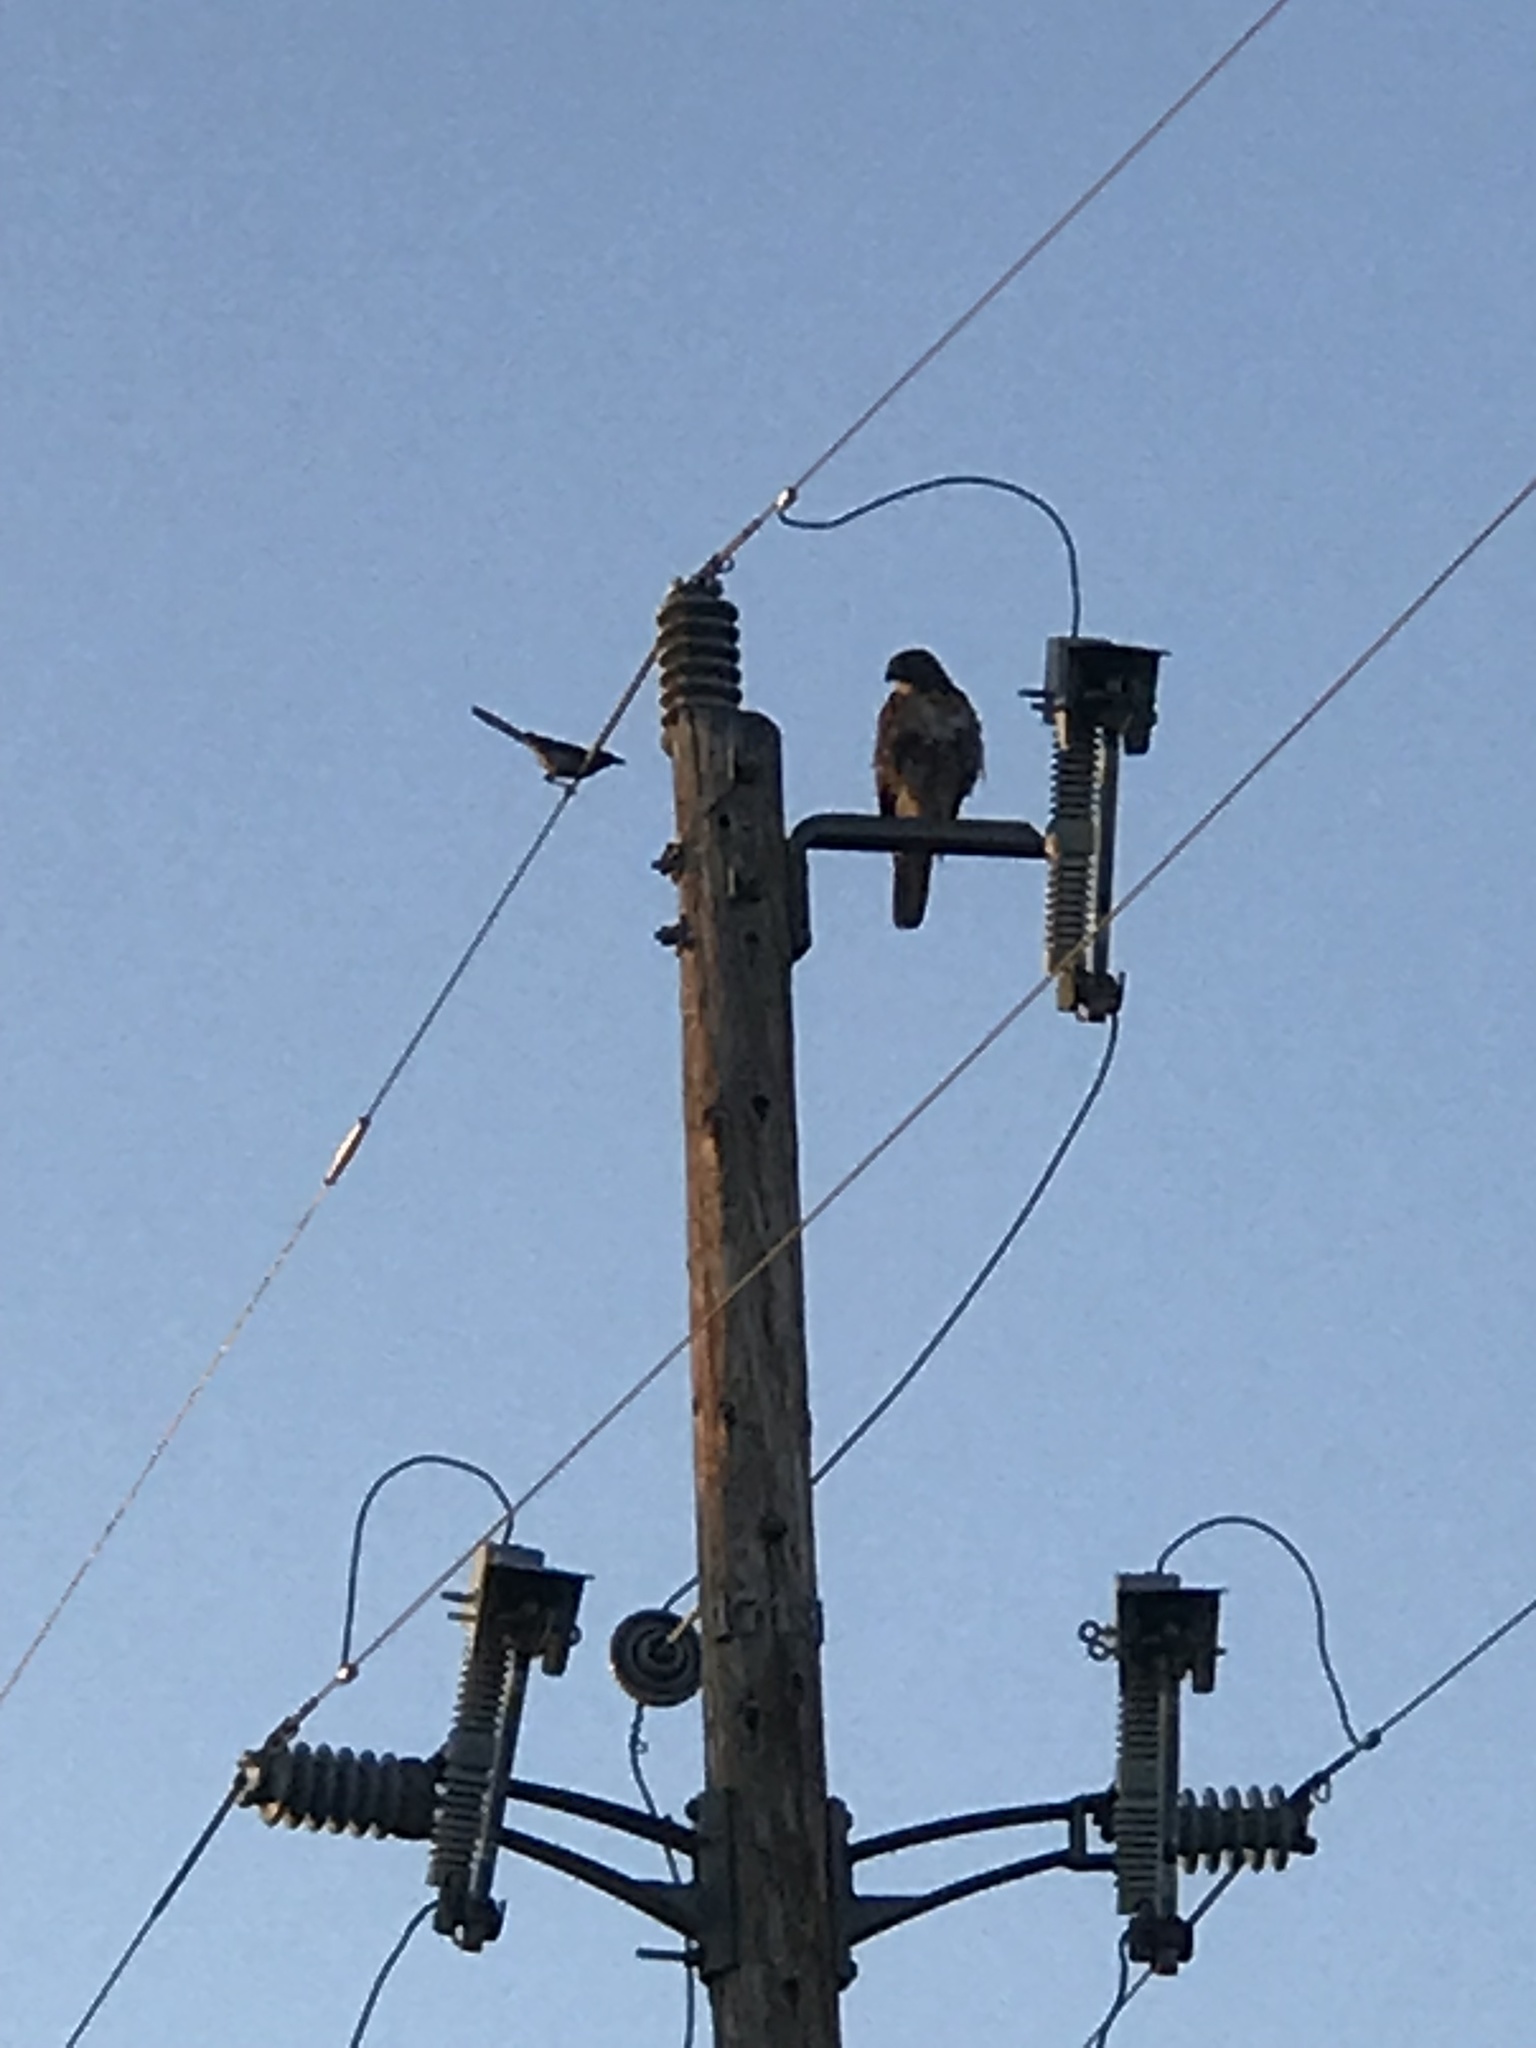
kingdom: Animalia
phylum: Chordata
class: Aves
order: Accipitriformes
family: Accipitridae
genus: Buteo
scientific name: Buteo jamaicensis
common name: Red-tailed hawk
